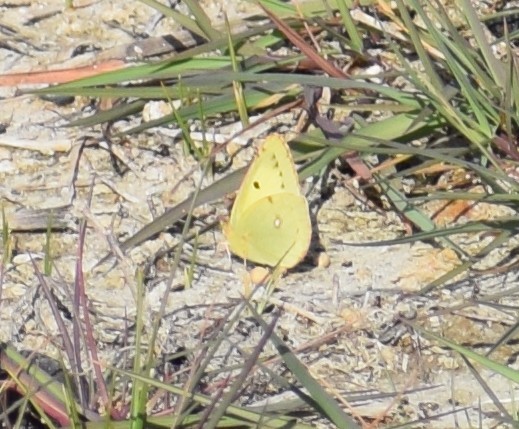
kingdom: Animalia
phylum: Arthropoda
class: Insecta
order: Lepidoptera
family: Pieridae
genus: Colias
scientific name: Colias
